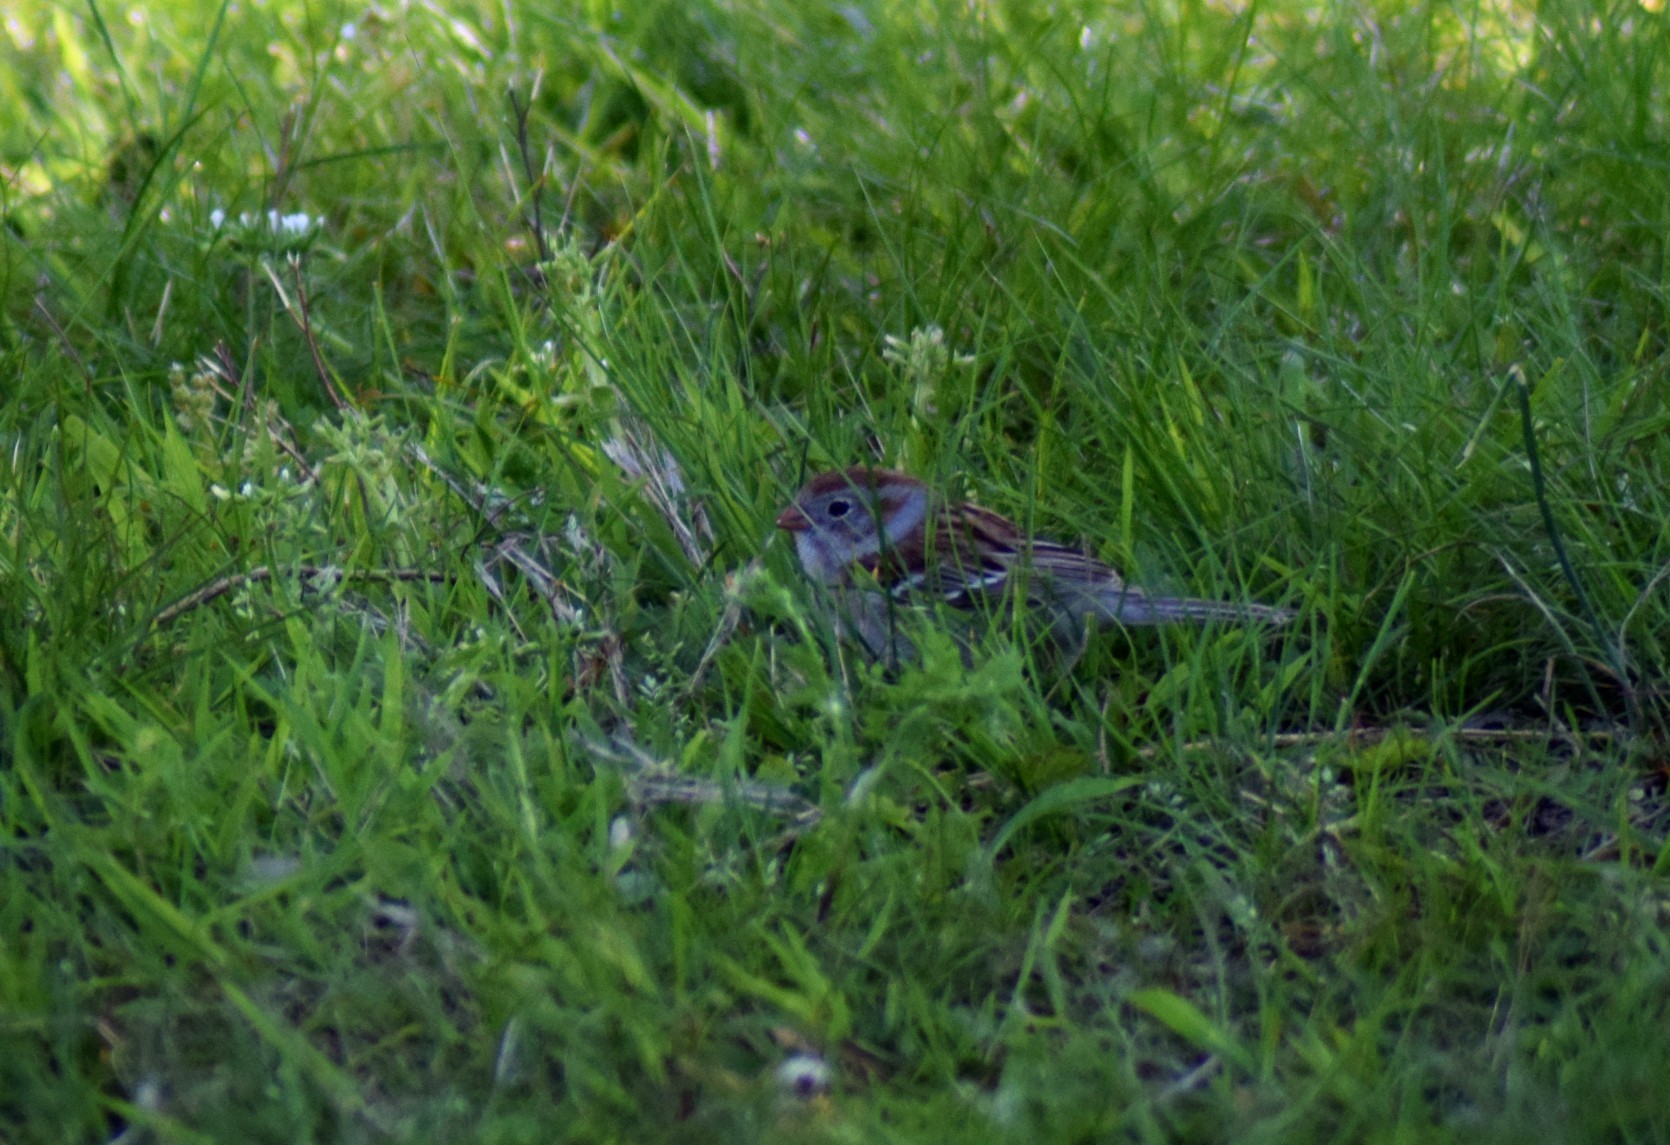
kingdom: Animalia
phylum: Chordata
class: Aves
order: Passeriformes
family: Passerellidae
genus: Spizella
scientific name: Spizella pusilla
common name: Field sparrow
